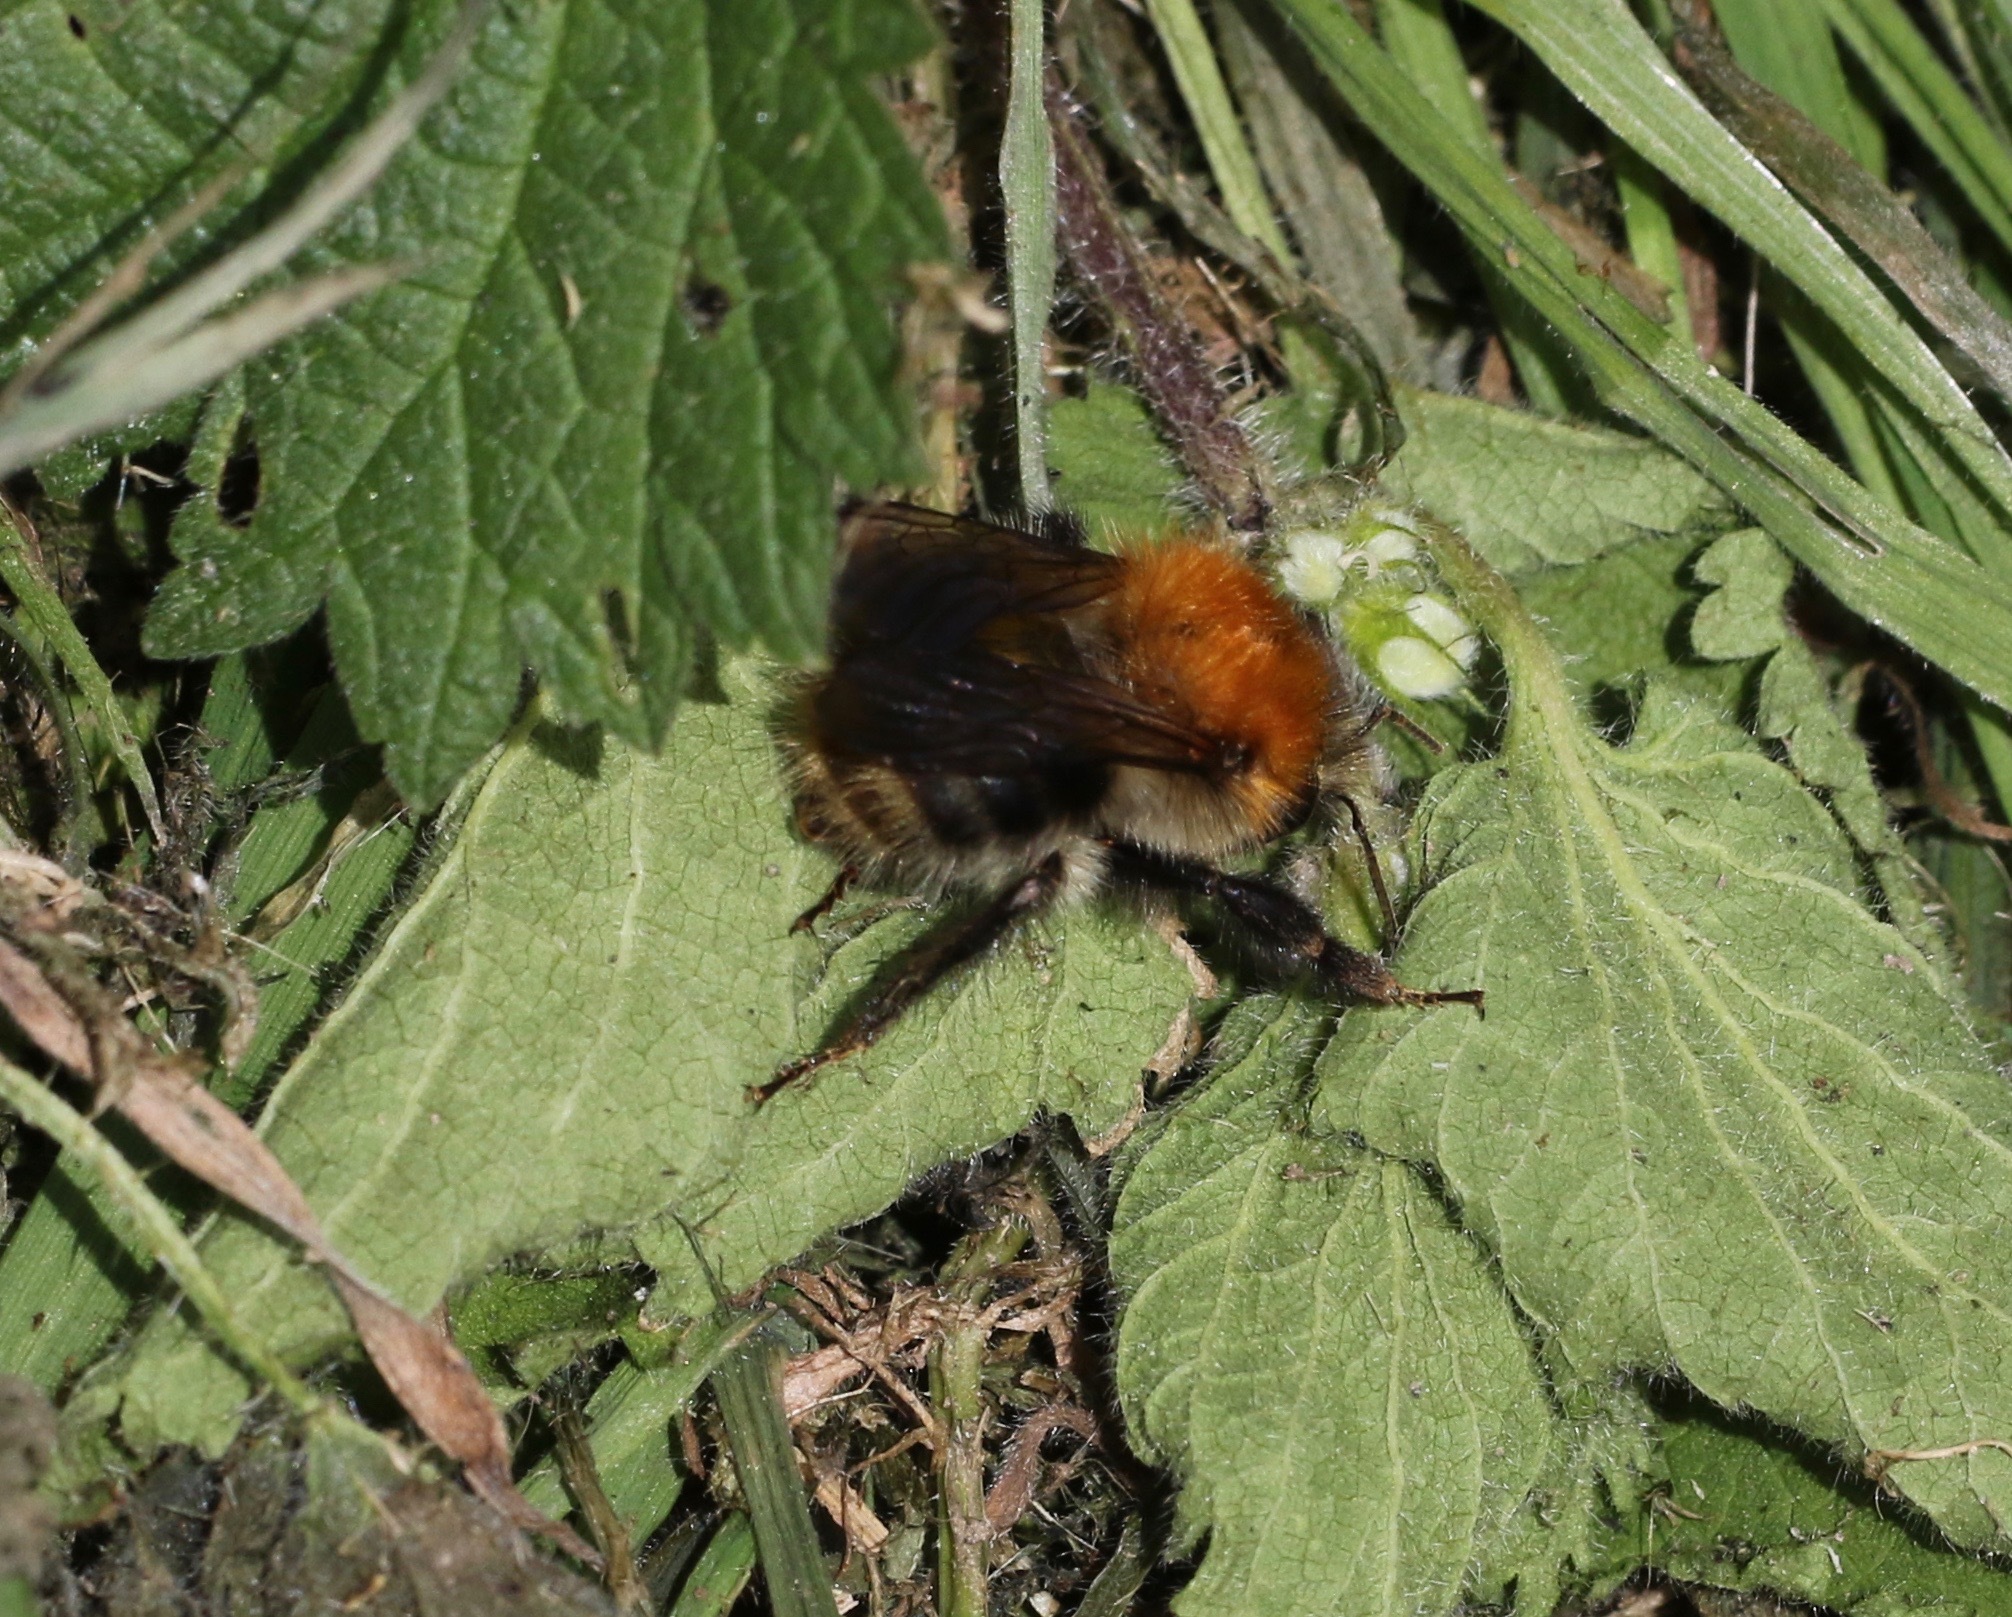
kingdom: Animalia
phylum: Arthropoda
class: Insecta
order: Hymenoptera
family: Apidae
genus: Bombus
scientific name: Bombus pascuorum
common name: Common carder bee
